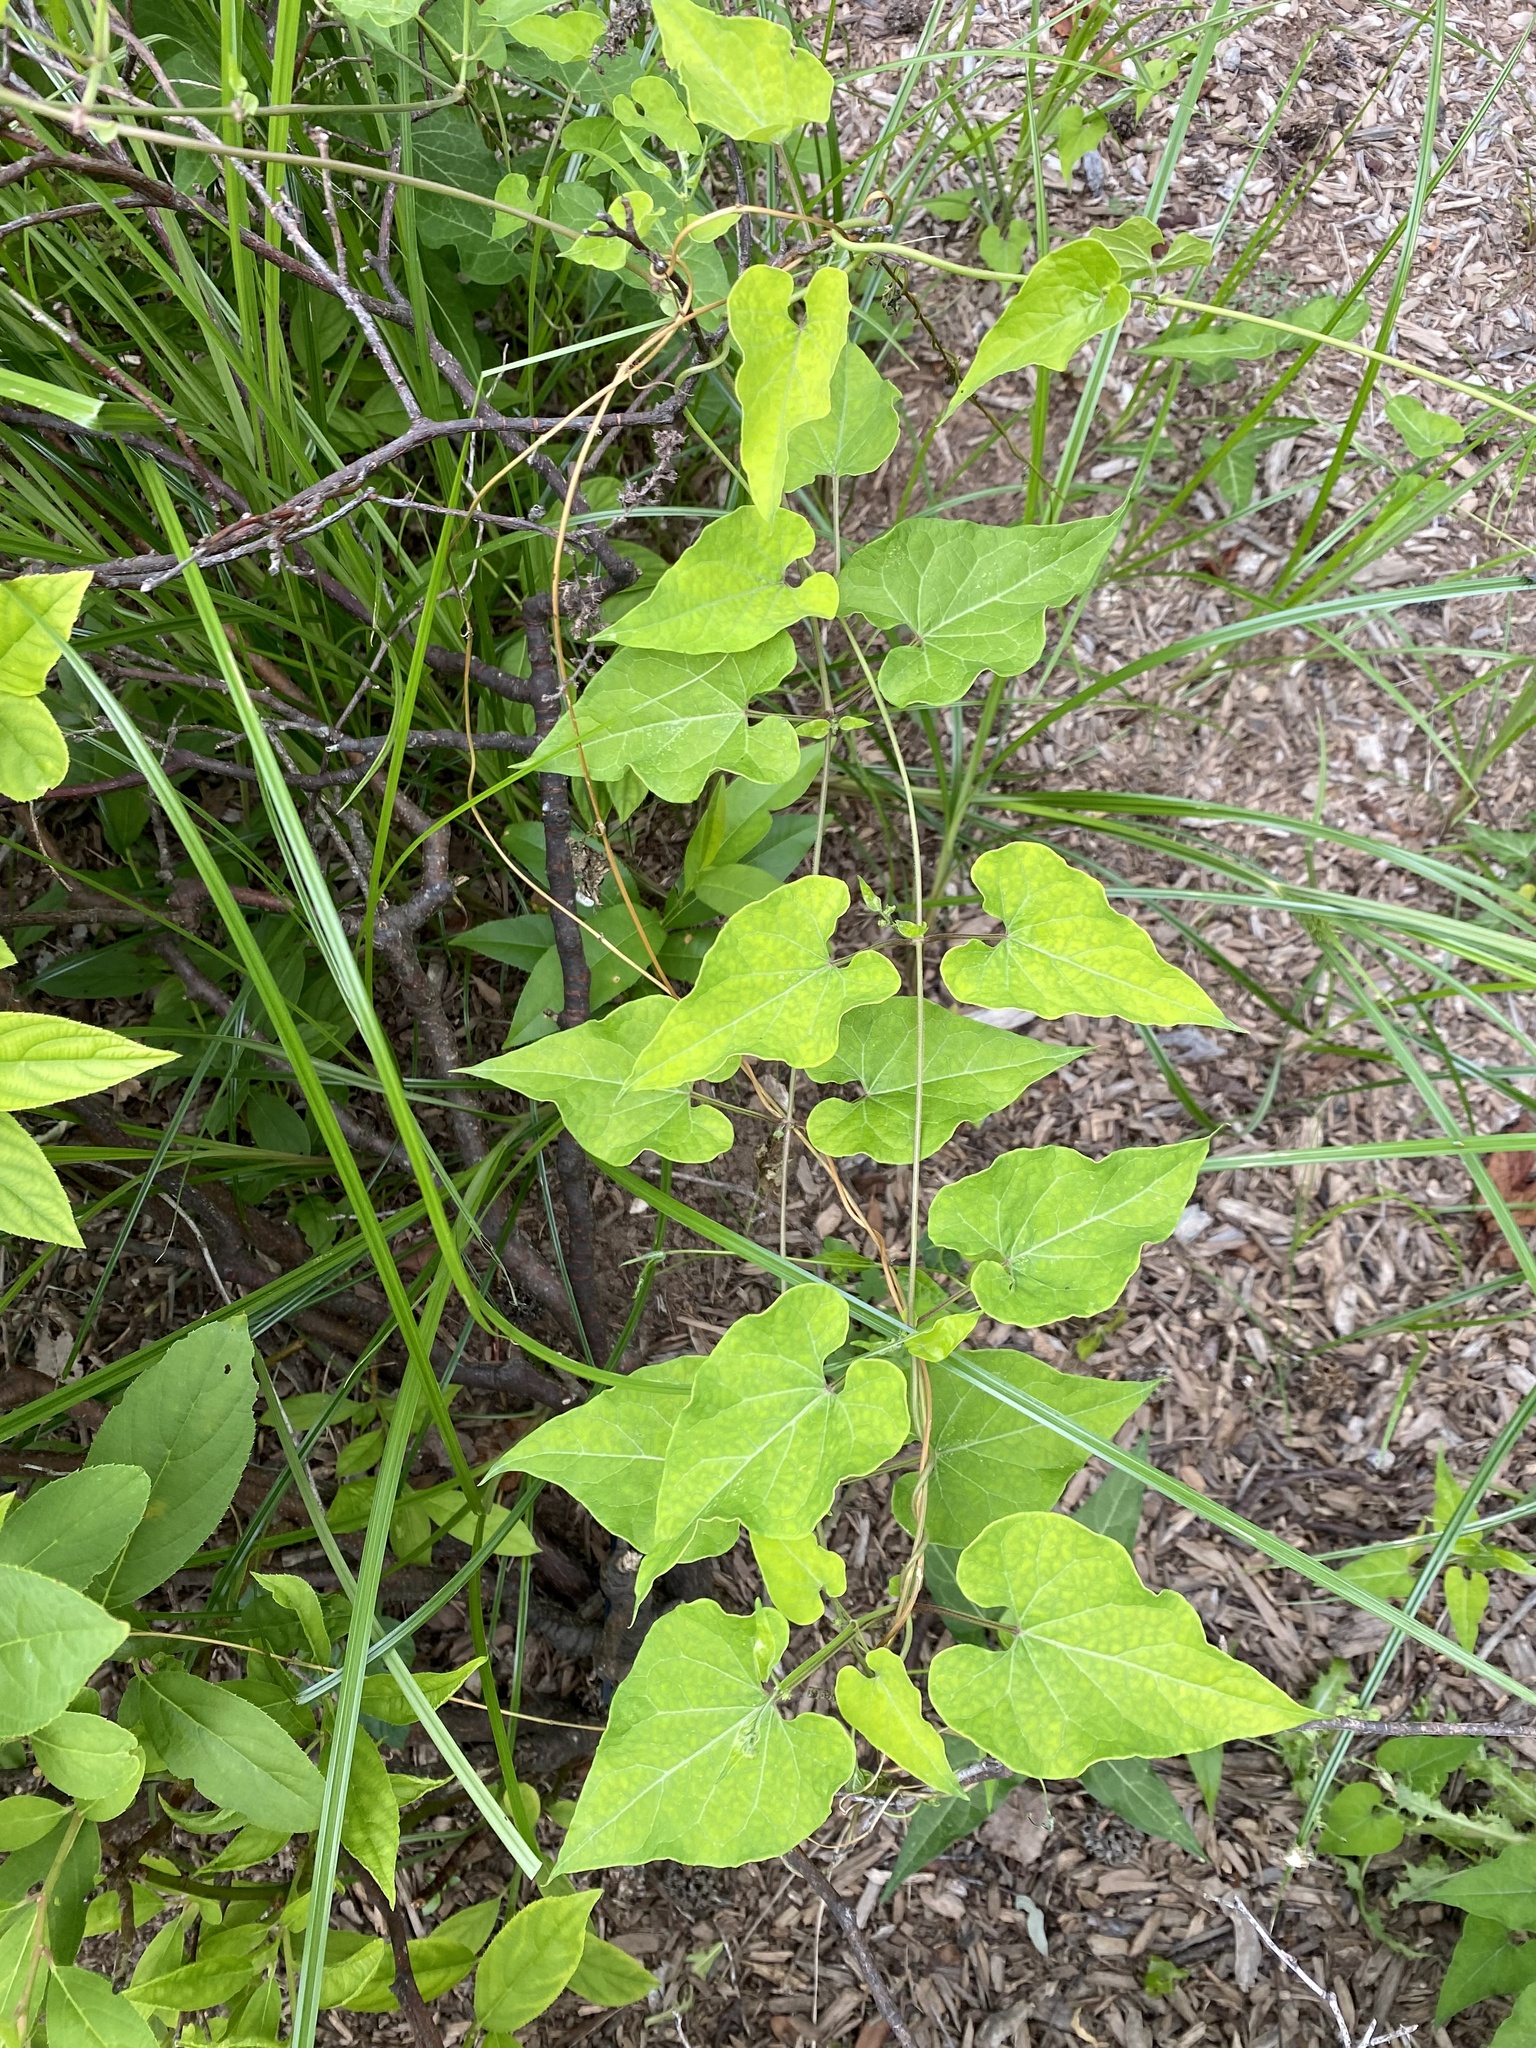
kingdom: Plantae
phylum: Tracheophyta
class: Magnoliopsida
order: Gentianales
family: Apocynaceae
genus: Cynanchum
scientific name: Cynanchum laeve
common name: Sandvine
